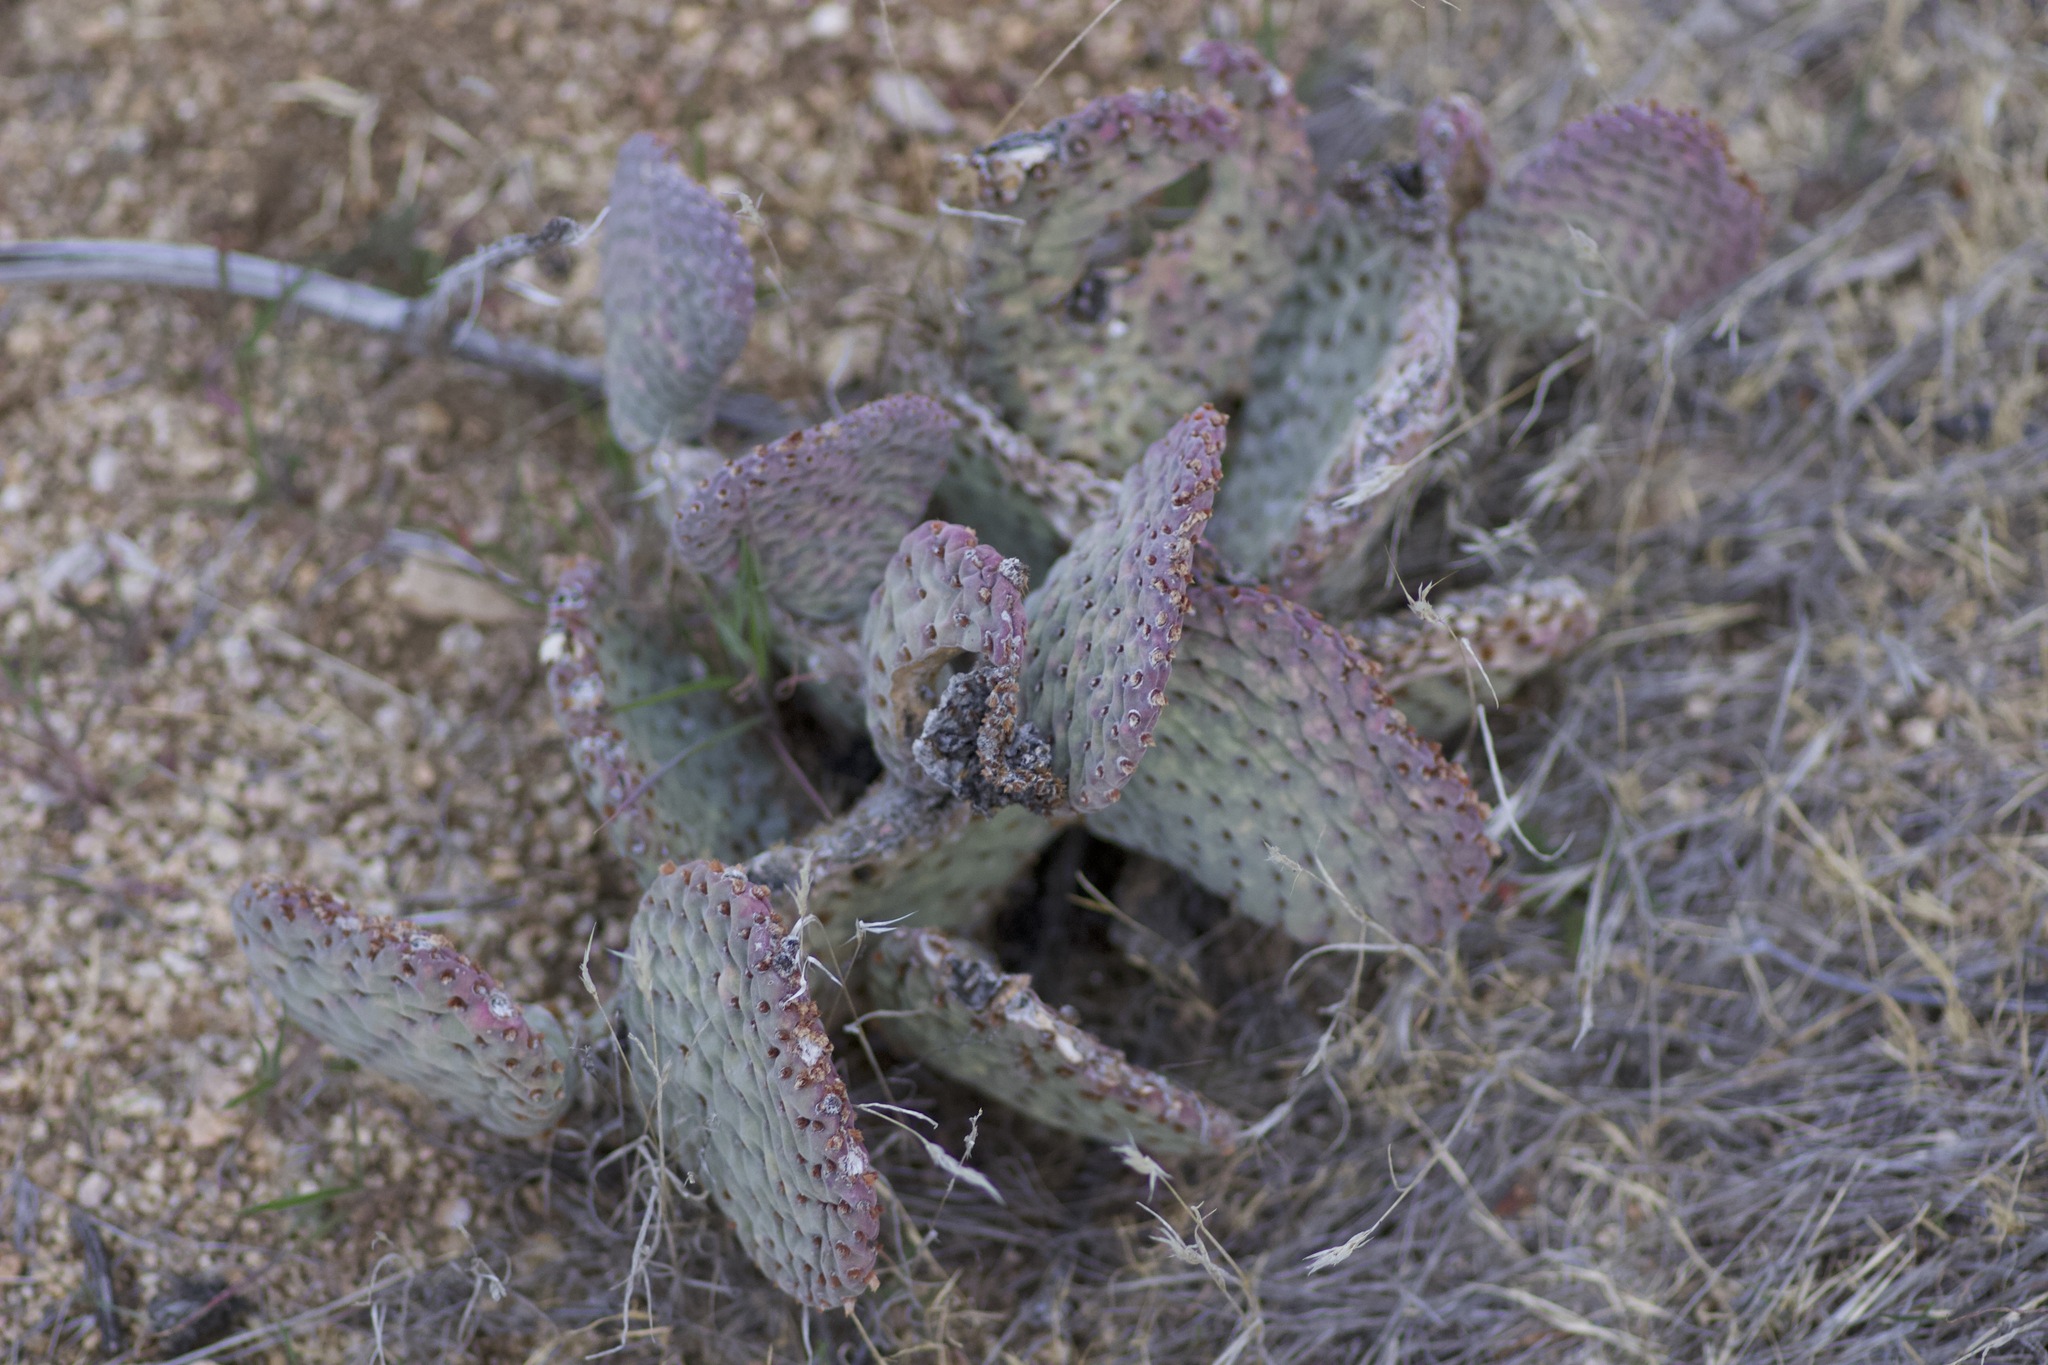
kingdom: Plantae
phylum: Tracheophyta
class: Magnoliopsida
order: Caryophyllales
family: Cactaceae
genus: Opuntia
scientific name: Opuntia basilaris
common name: Beavertail prickly-pear
